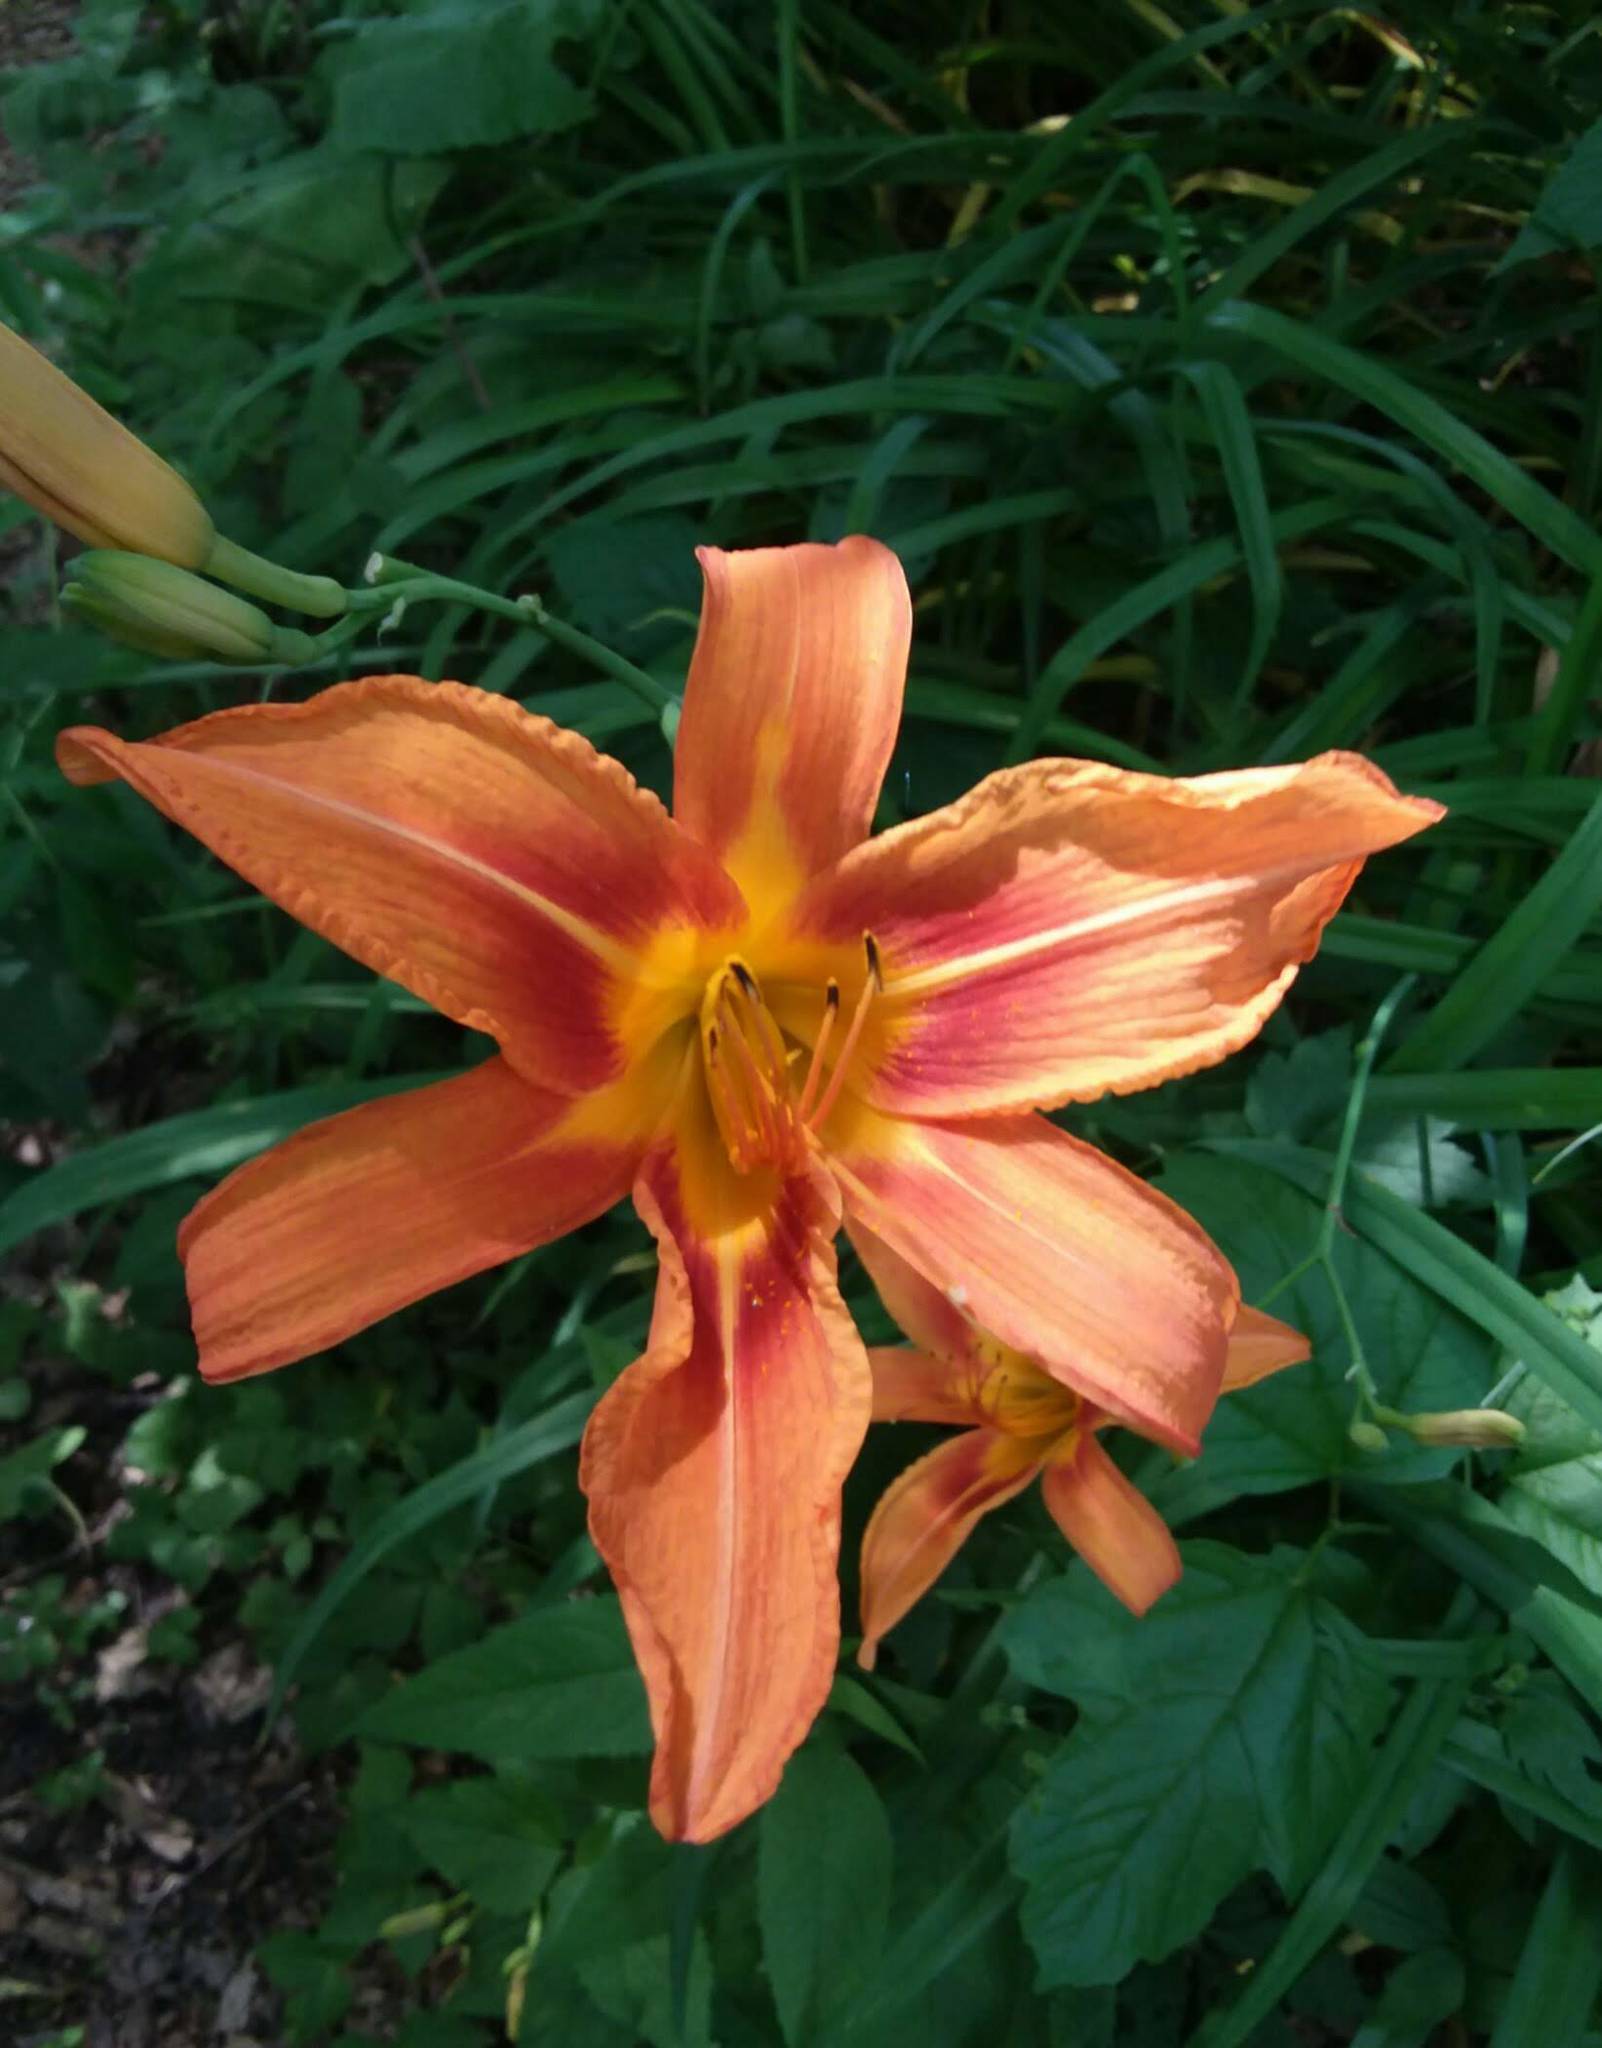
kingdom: Plantae
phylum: Tracheophyta
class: Liliopsida
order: Asparagales
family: Asphodelaceae
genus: Hemerocallis
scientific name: Hemerocallis fulva
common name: Orange day-lily
